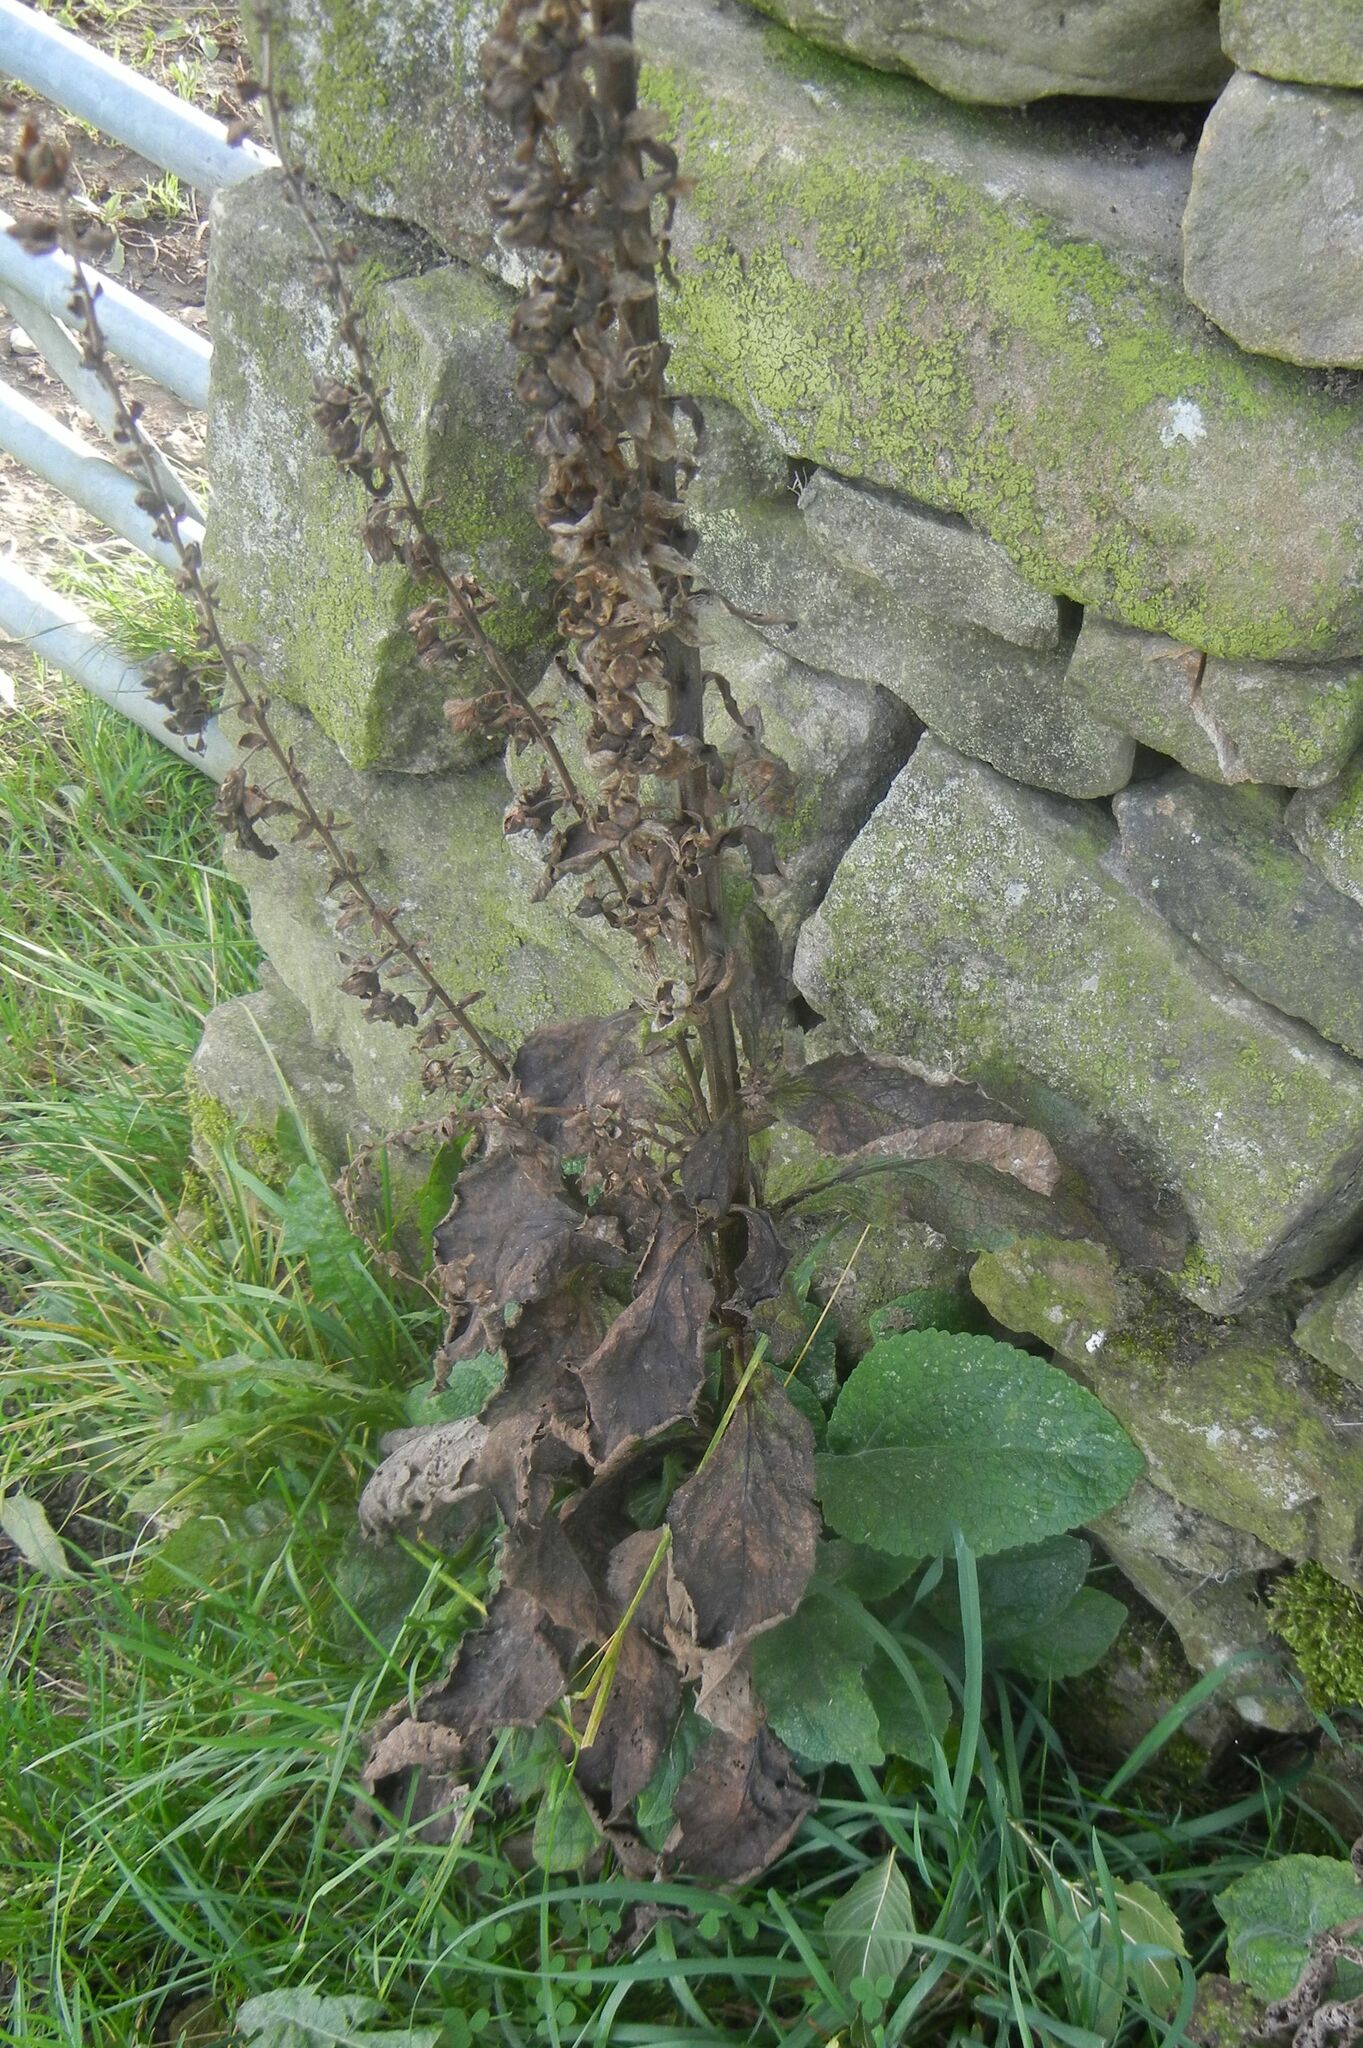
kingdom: Plantae
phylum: Tracheophyta
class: Magnoliopsida
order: Lamiales
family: Plantaginaceae
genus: Digitalis
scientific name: Digitalis purpurea
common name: Foxglove
